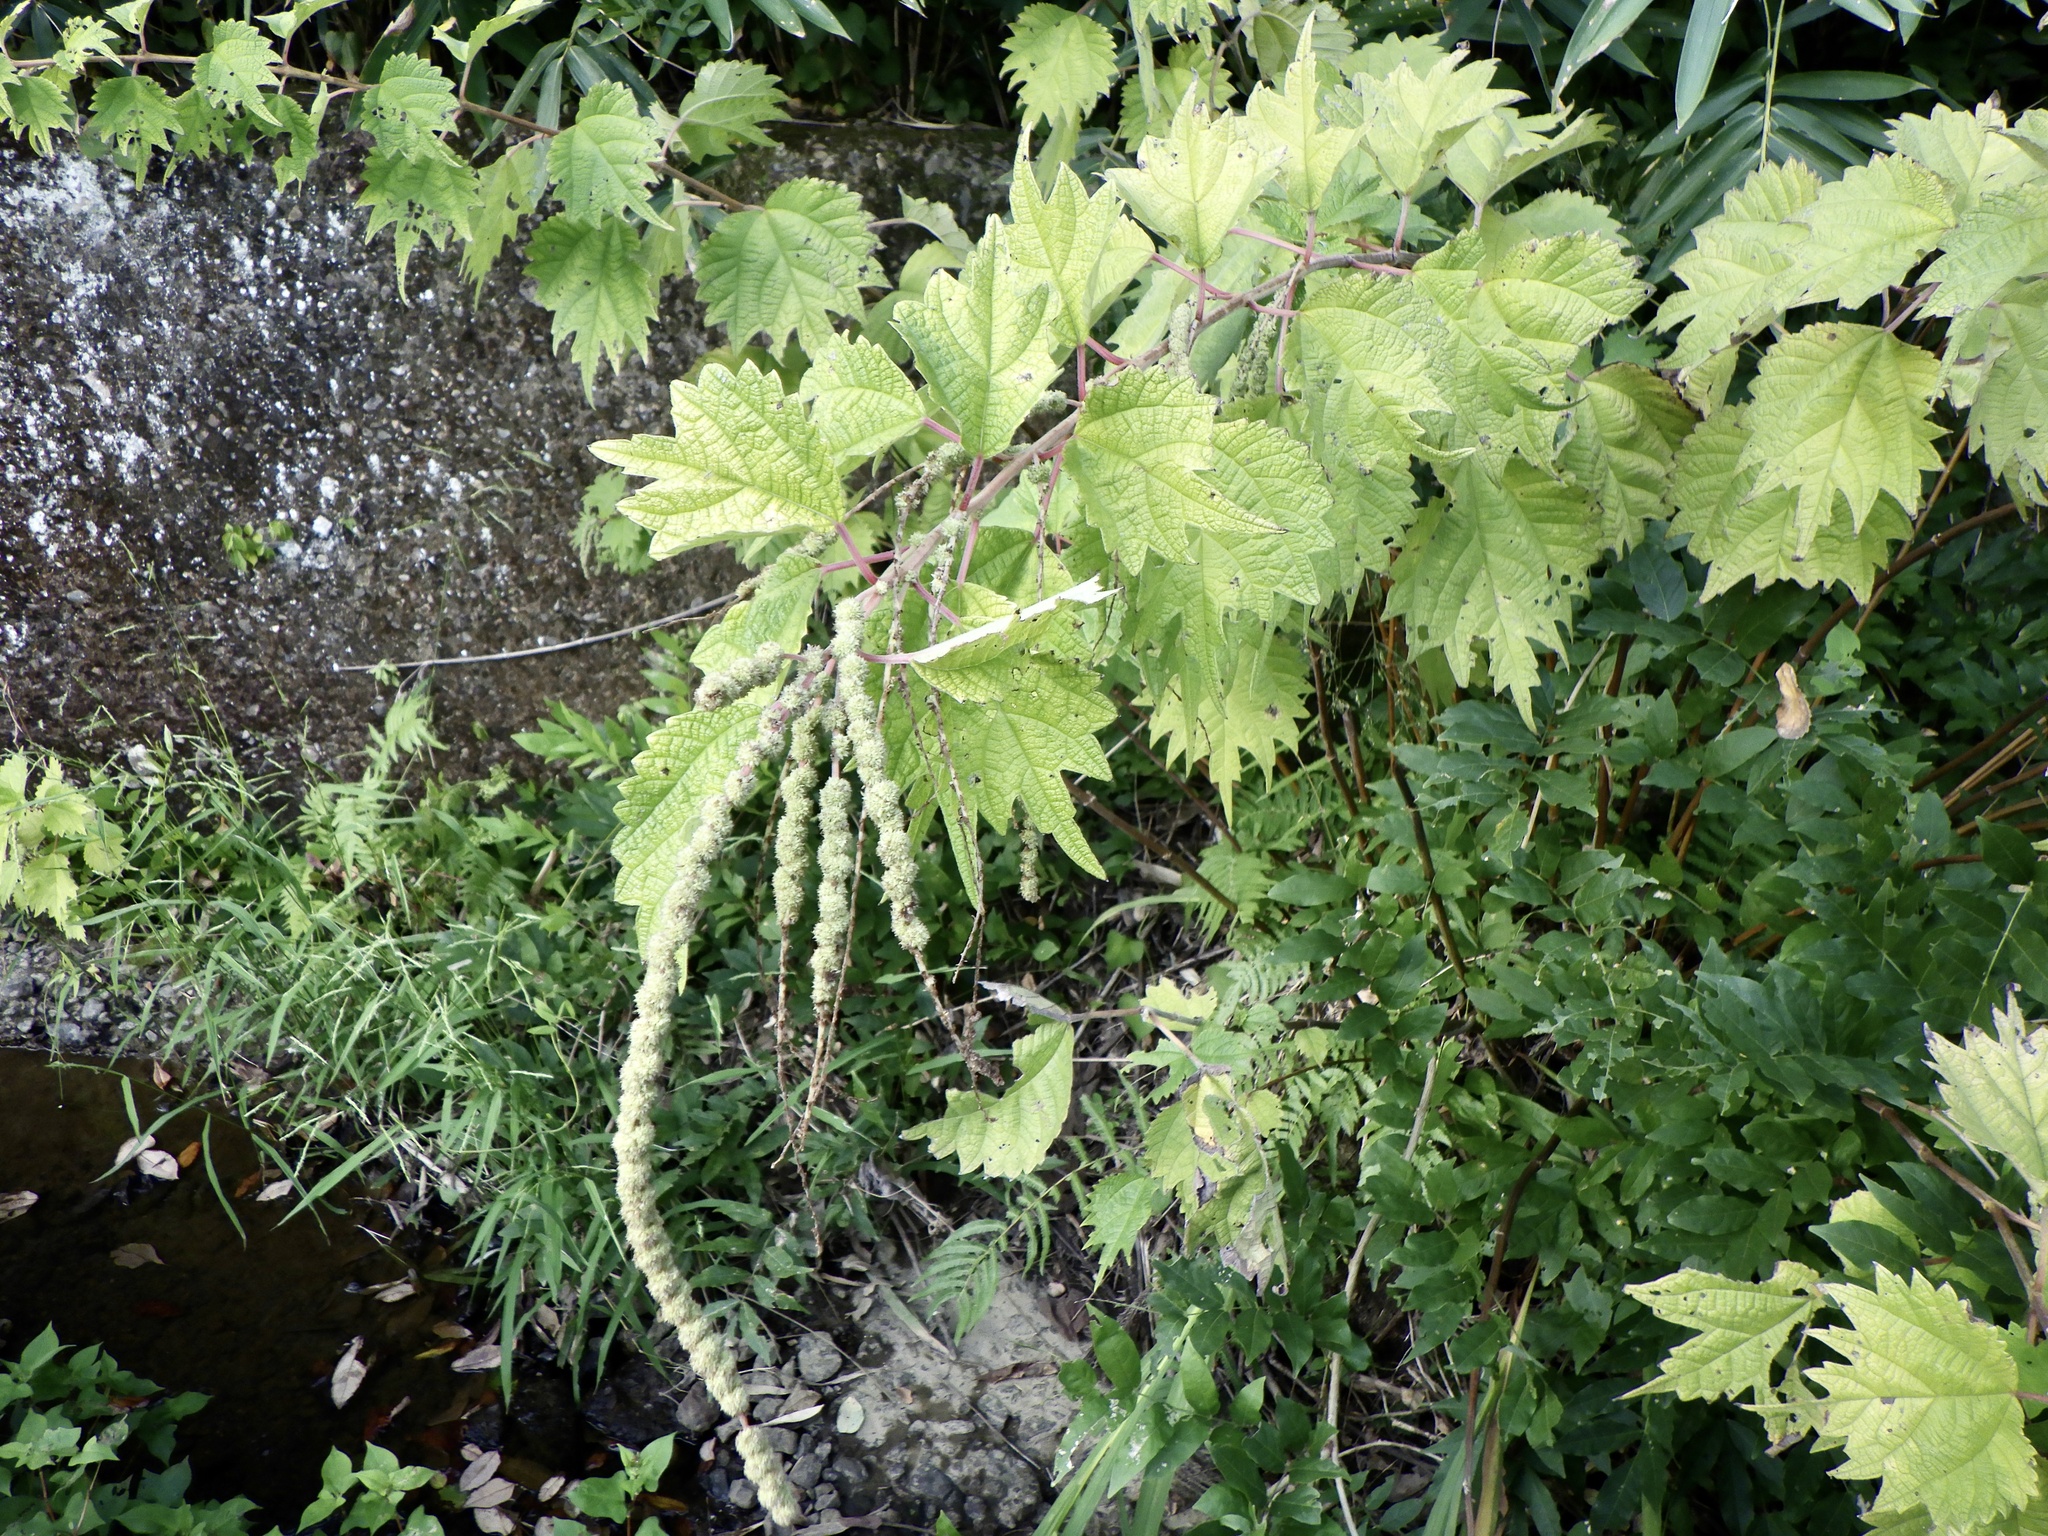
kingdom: Plantae
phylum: Tracheophyta
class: Magnoliopsida
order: Rosales
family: Urticaceae
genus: Boehmeria
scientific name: Boehmeria platanifolia
